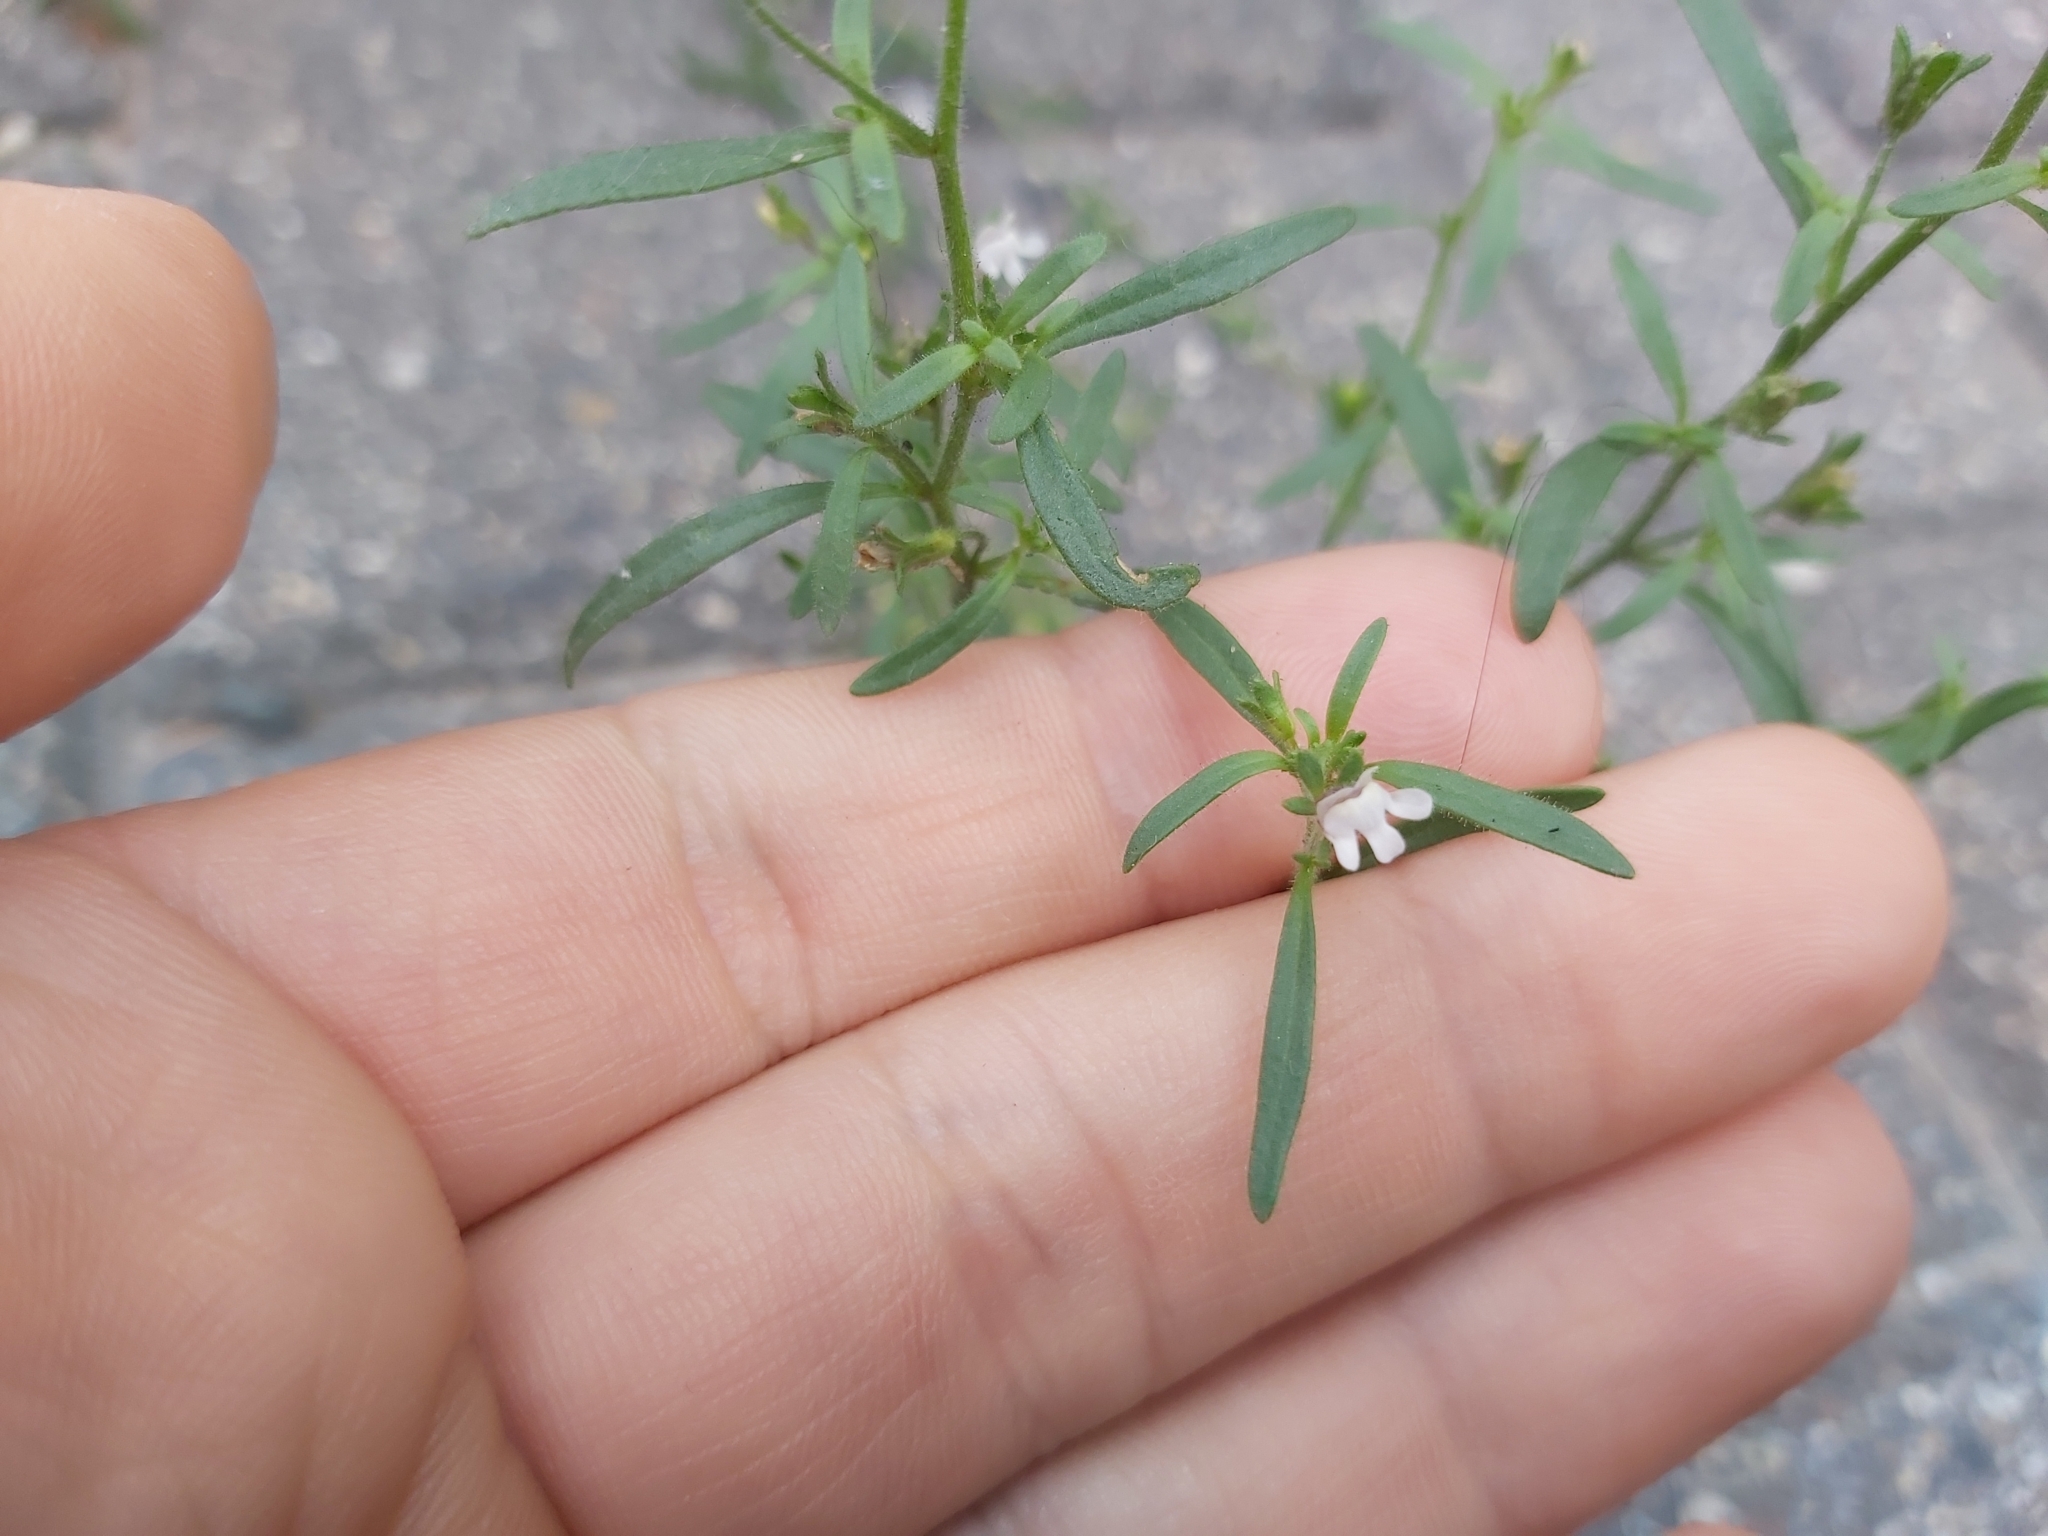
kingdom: Plantae
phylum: Tracheophyta
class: Magnoliopsida
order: Lamiales
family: Plantaginaceae
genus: Chaenorhinum
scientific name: Chaenorhinum minus
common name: Dwarf snapdragon
